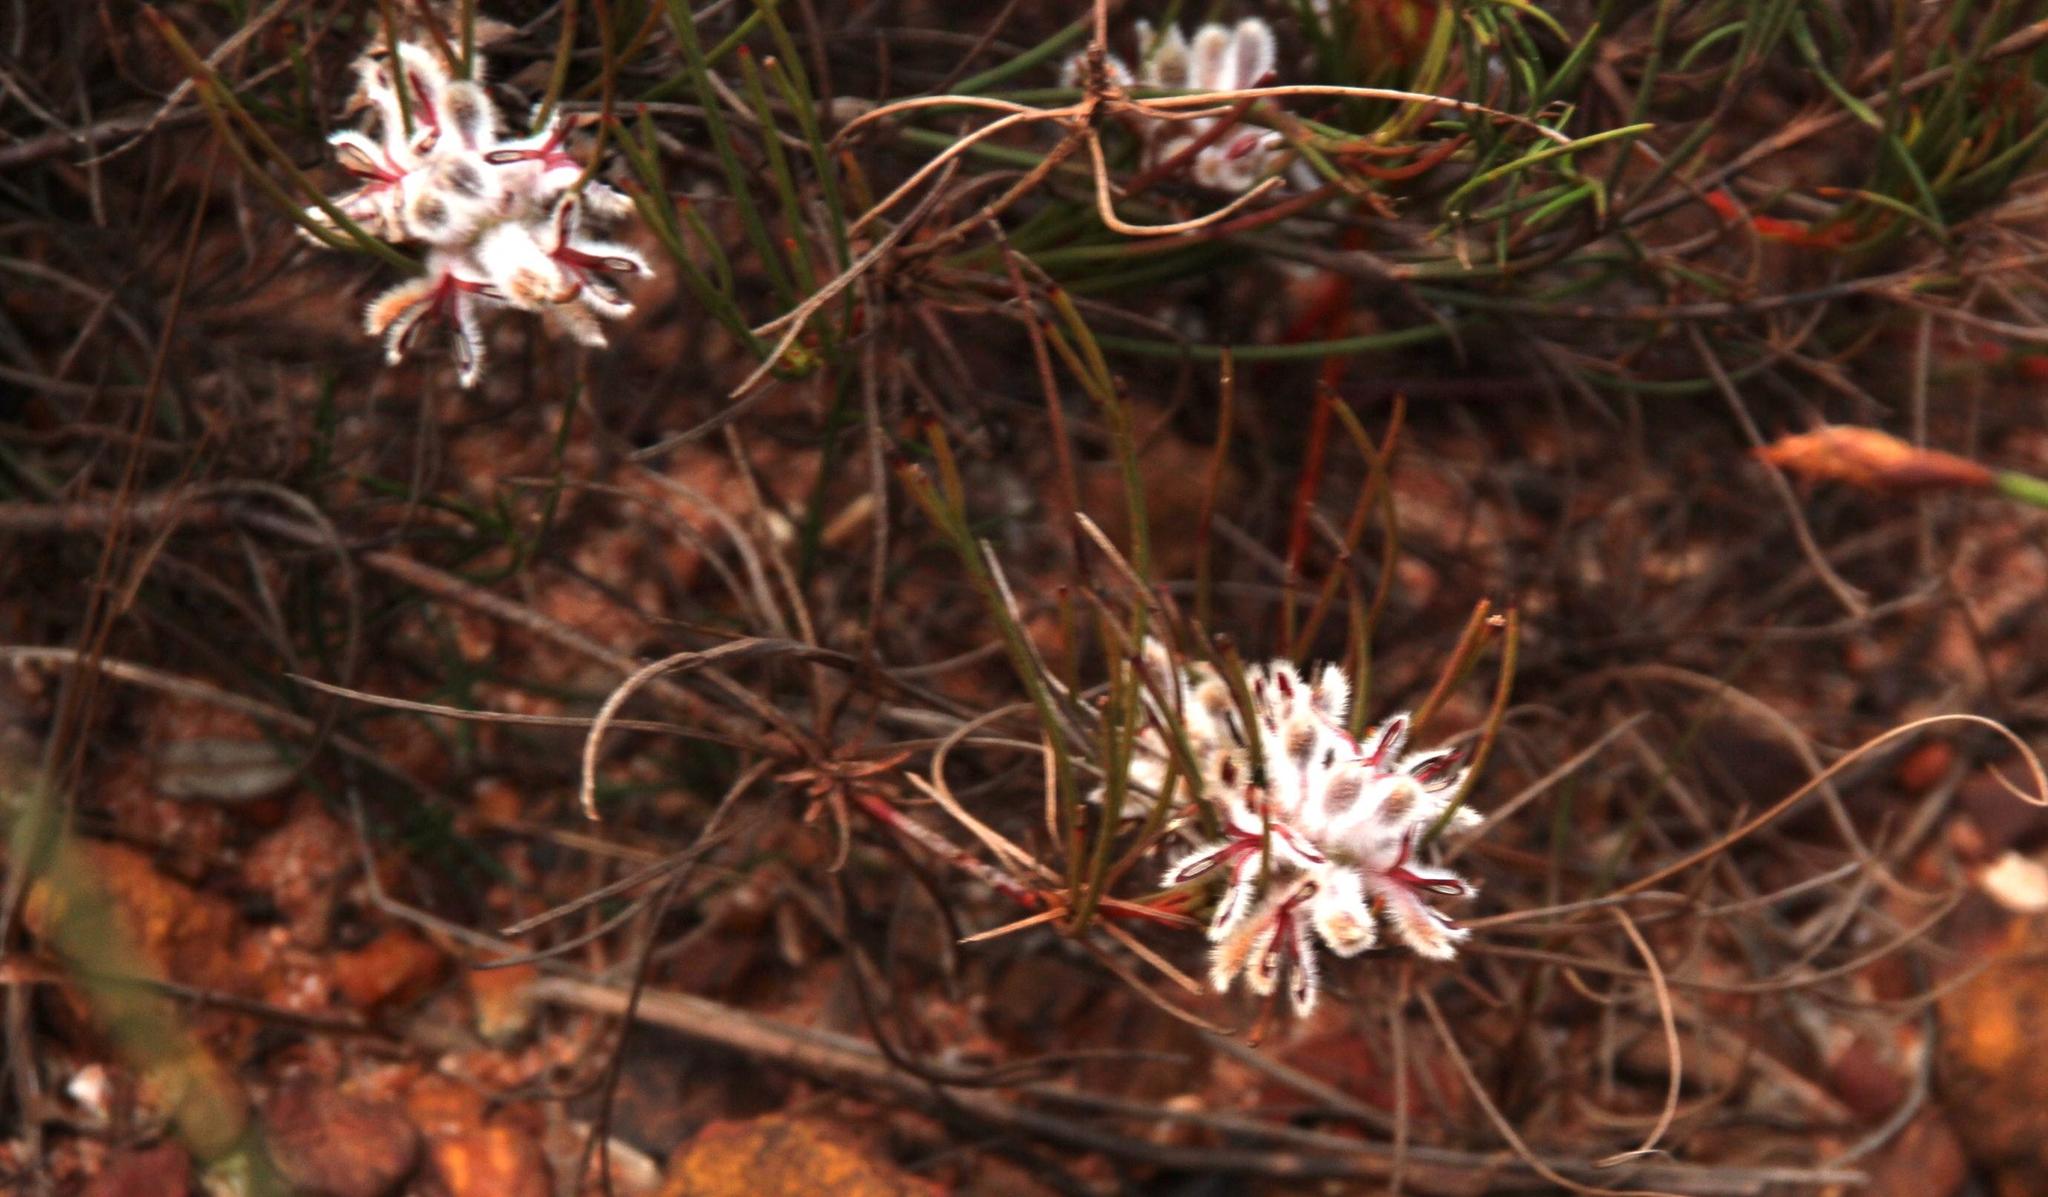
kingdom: Plantae
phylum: Tracheophyta
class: Magnoliopsida
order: Proteales
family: Proteaceae
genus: Serruria
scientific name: Serruria deluvialis
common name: Grass spiderhead
